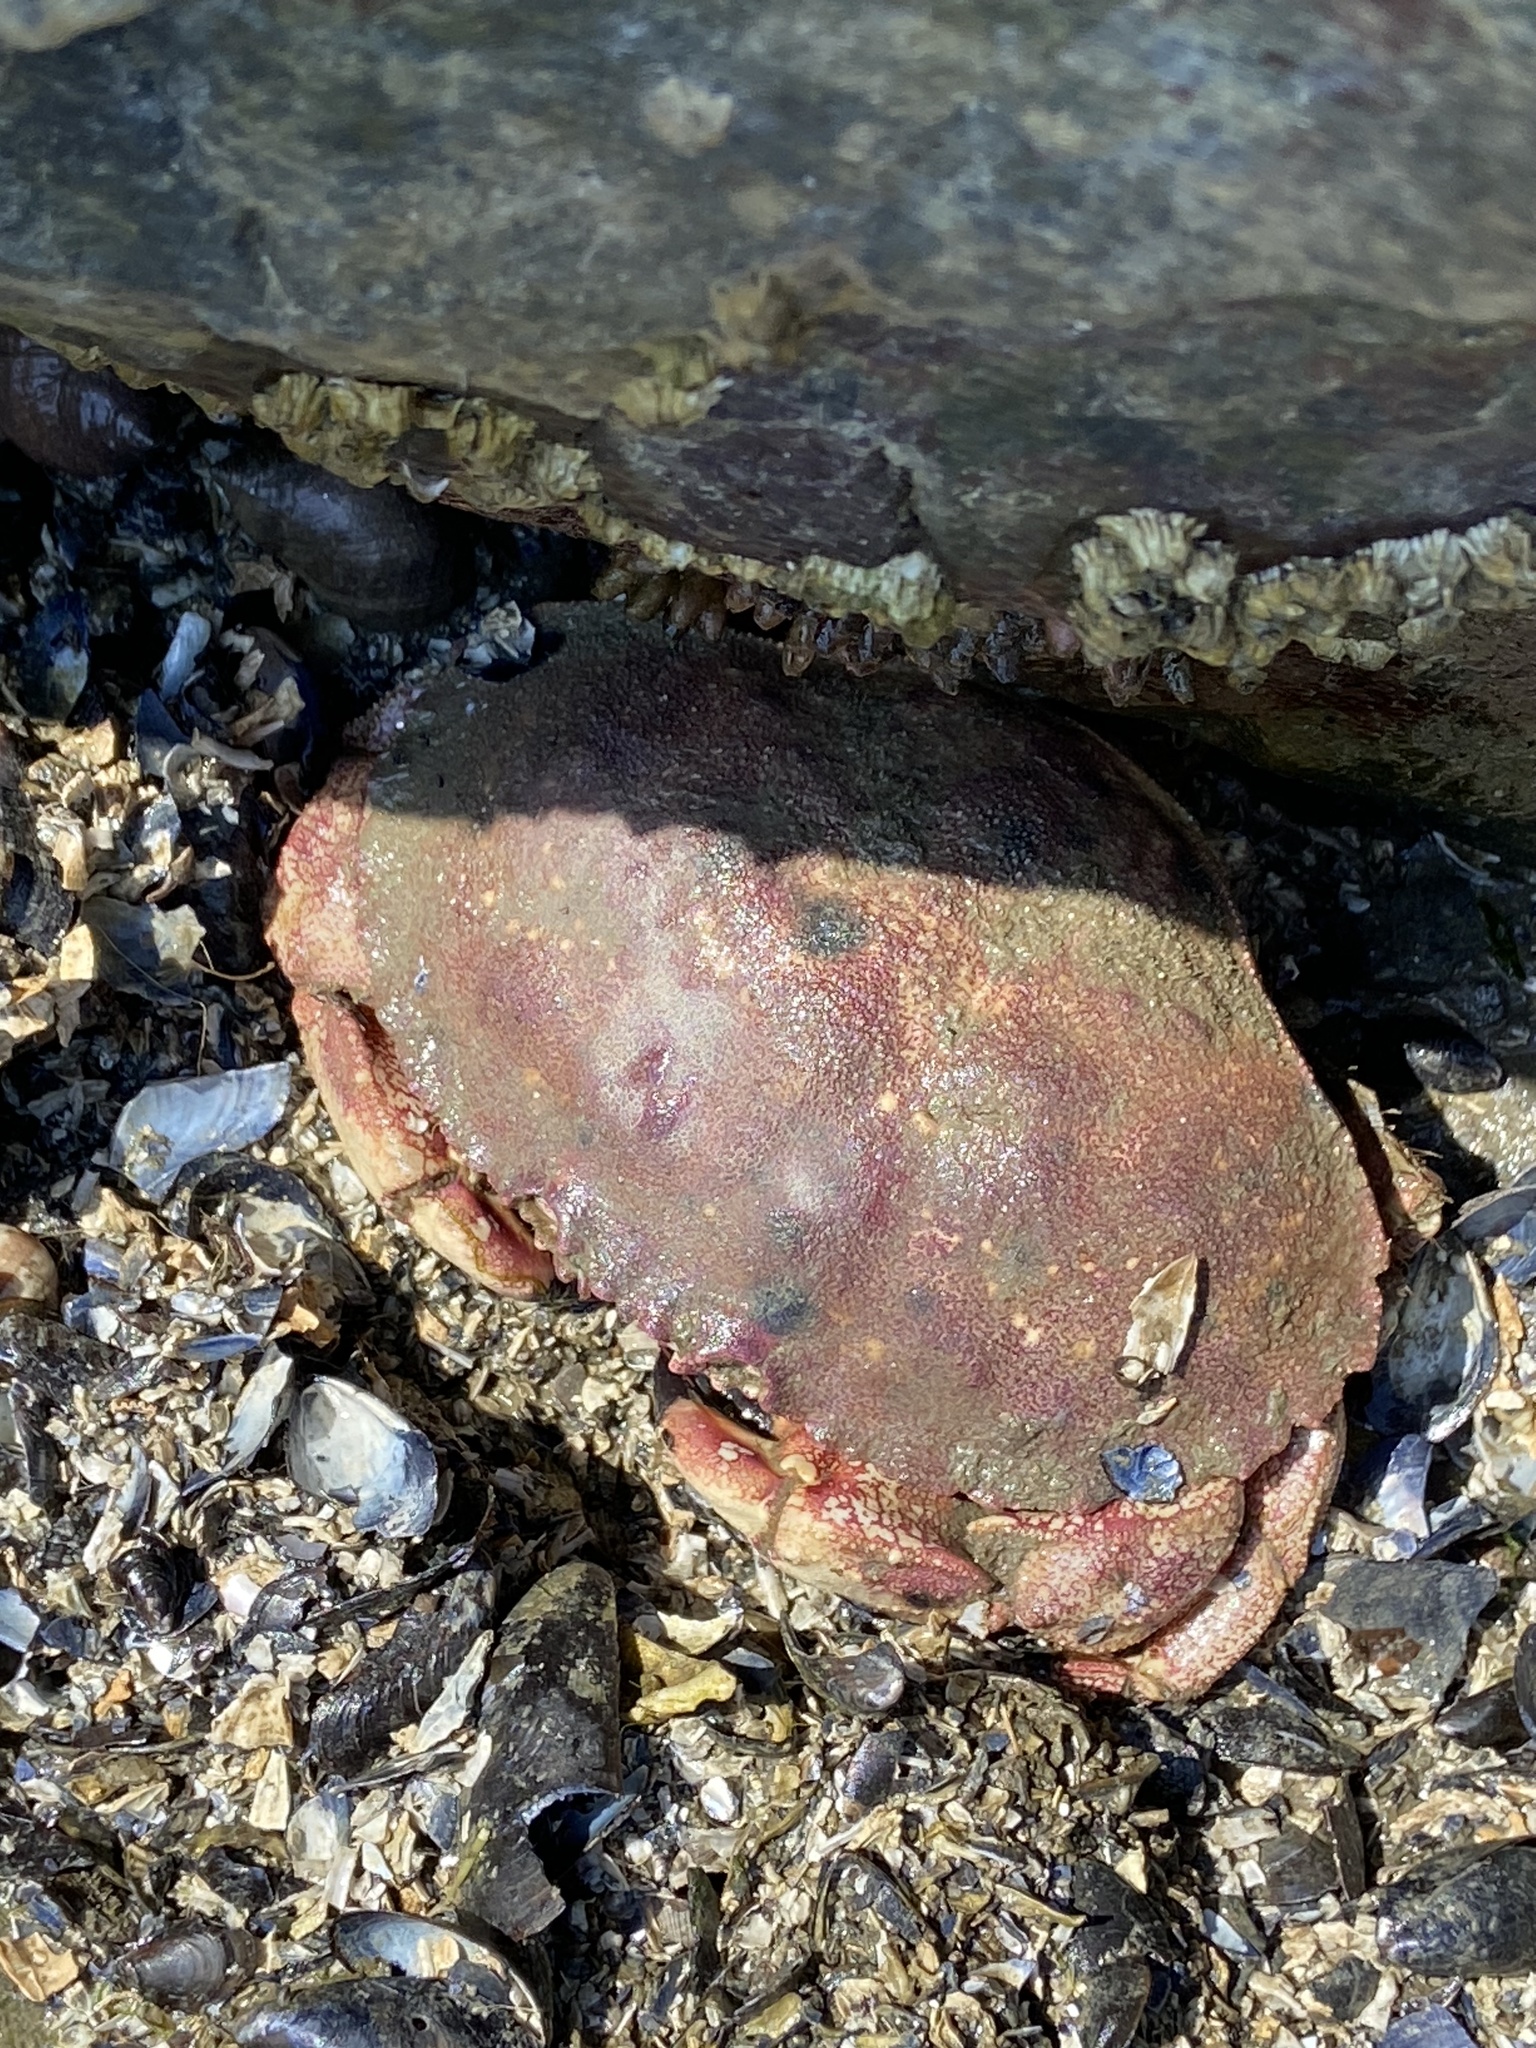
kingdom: Animalia
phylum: Arthropoda
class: Malacostraca
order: Decapoda
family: Cancridae
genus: Cancer
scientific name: Cancer borealis
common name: Jonah crab
